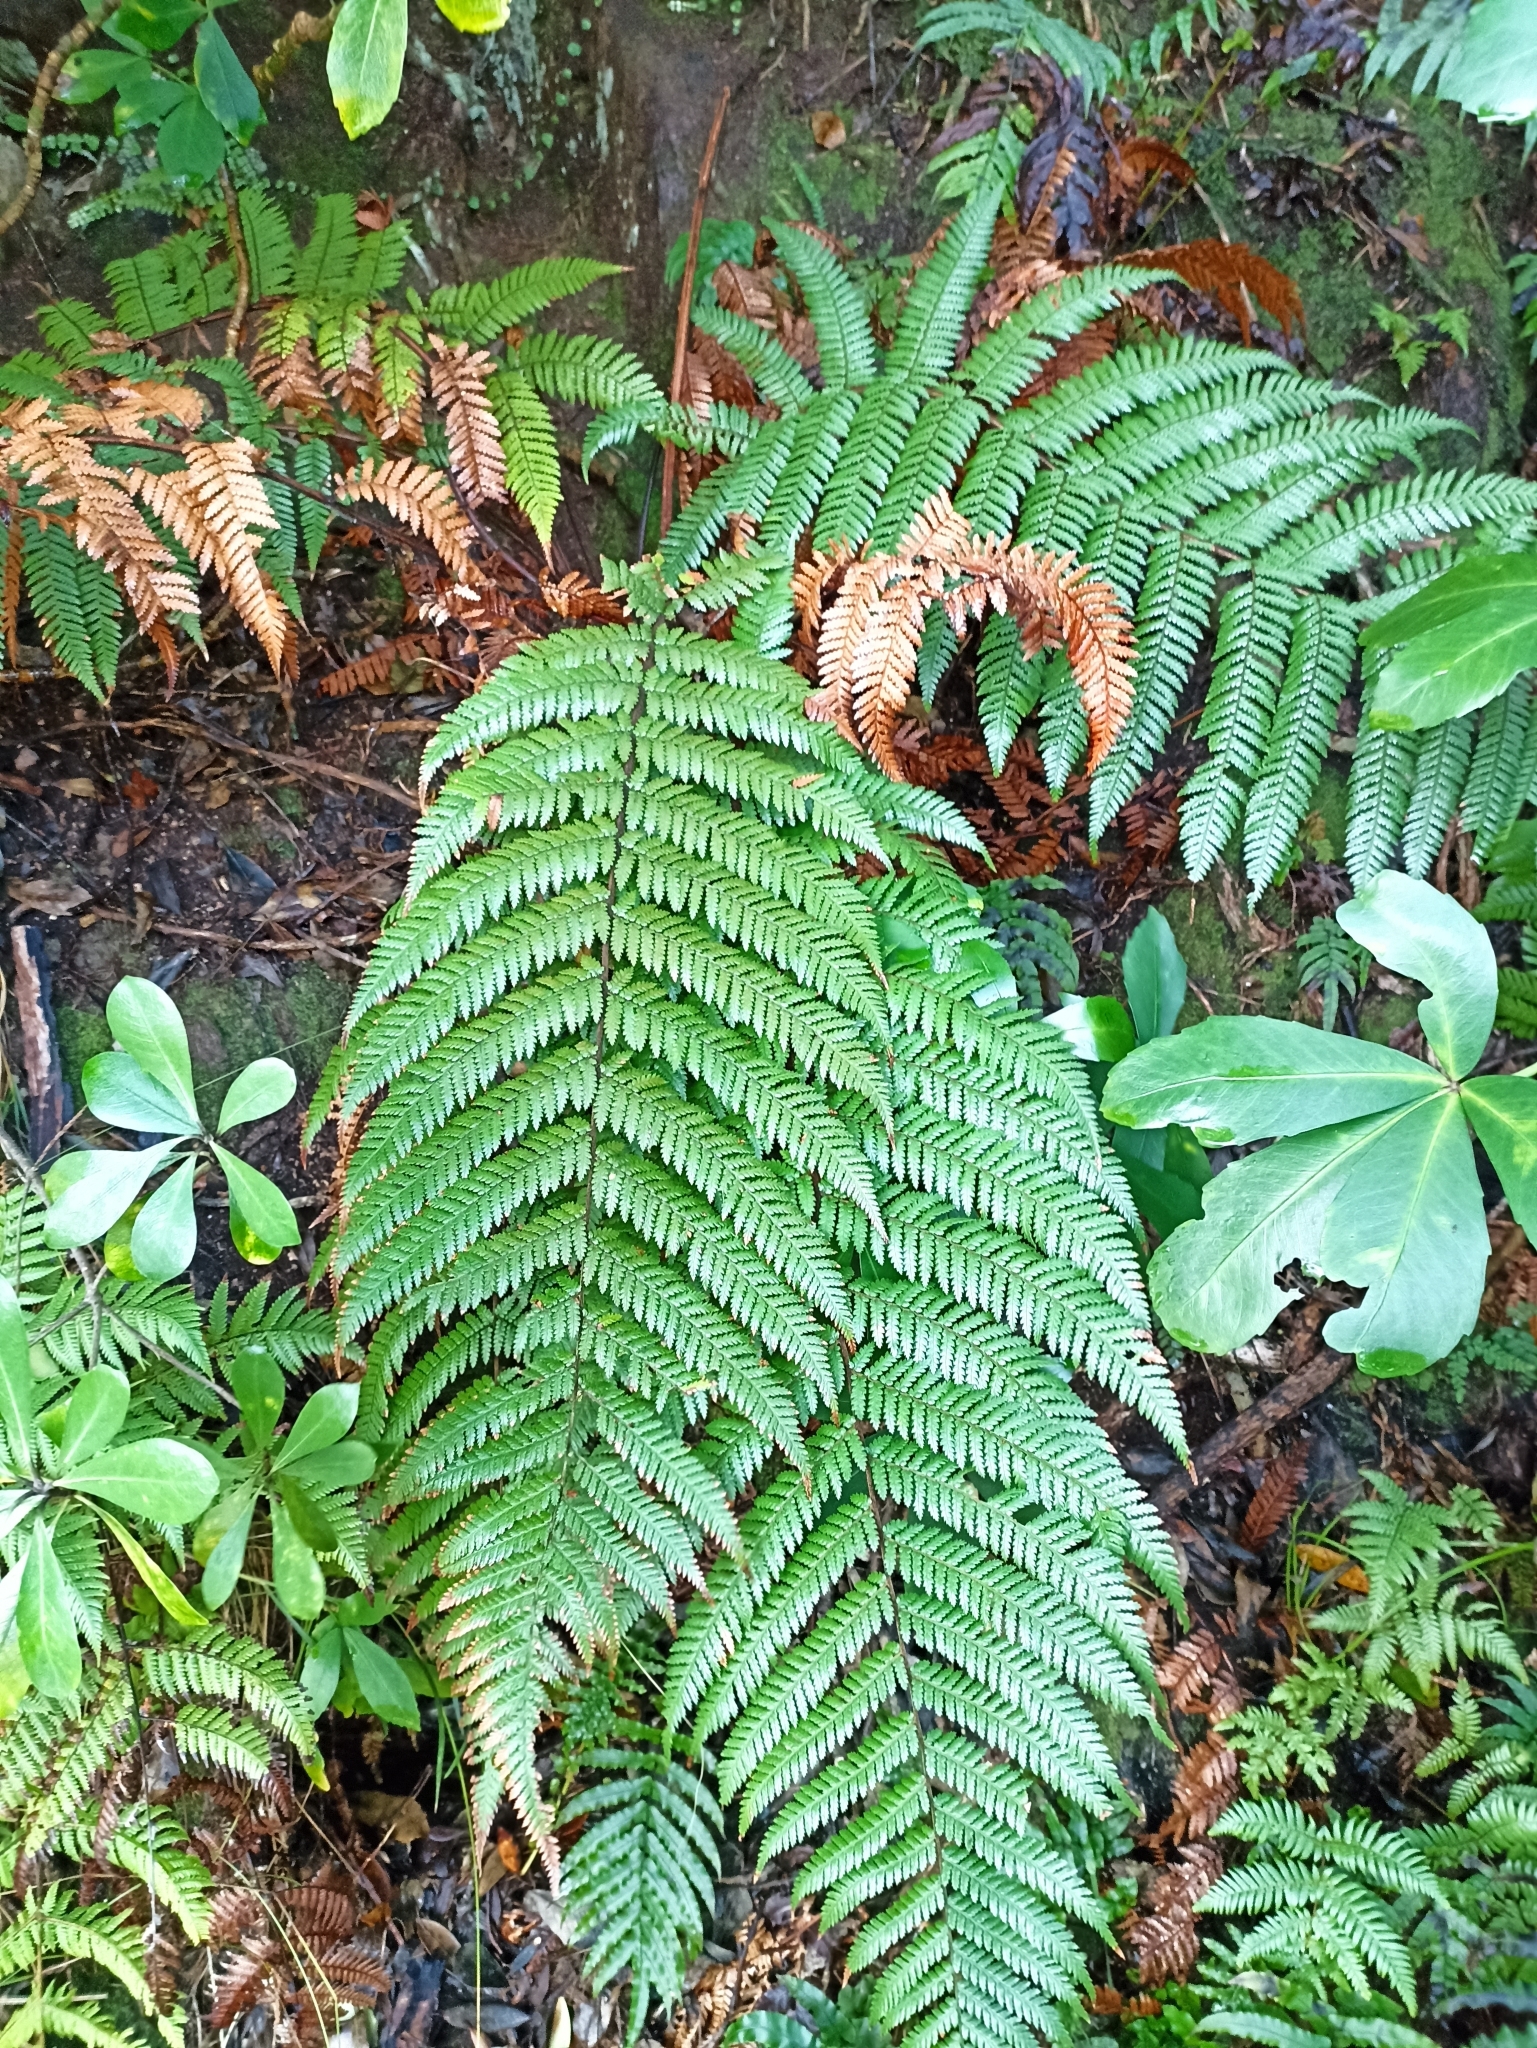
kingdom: Plantae
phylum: Tracheophyta
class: Polypodiopsida
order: Cyatheales
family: Dicksoniaceae
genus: Dicksonia
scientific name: Dicksonia squarrosa
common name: Hard treefern
